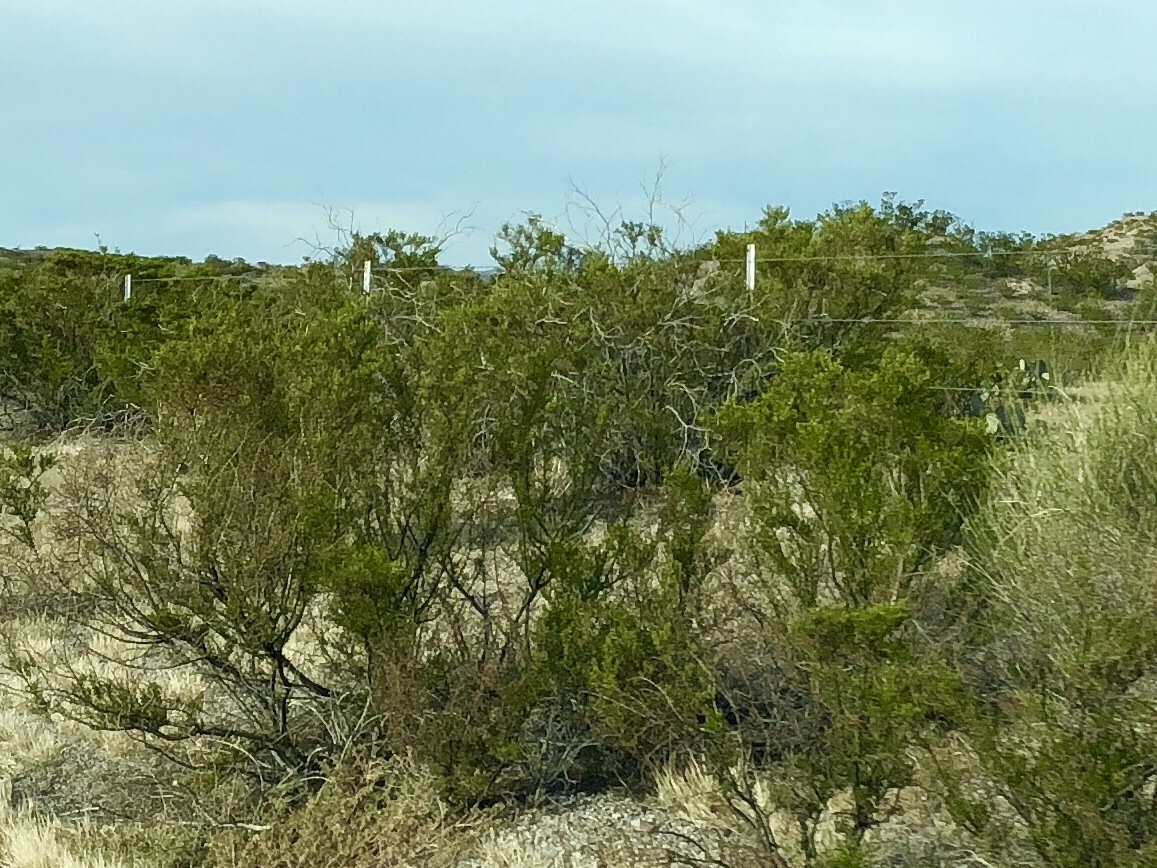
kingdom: Plantae
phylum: Tracheophyta
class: Magnoliopsida
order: Zygophyllales
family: Zygophyllaceae
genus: Larrea
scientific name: Larrea tridentata
